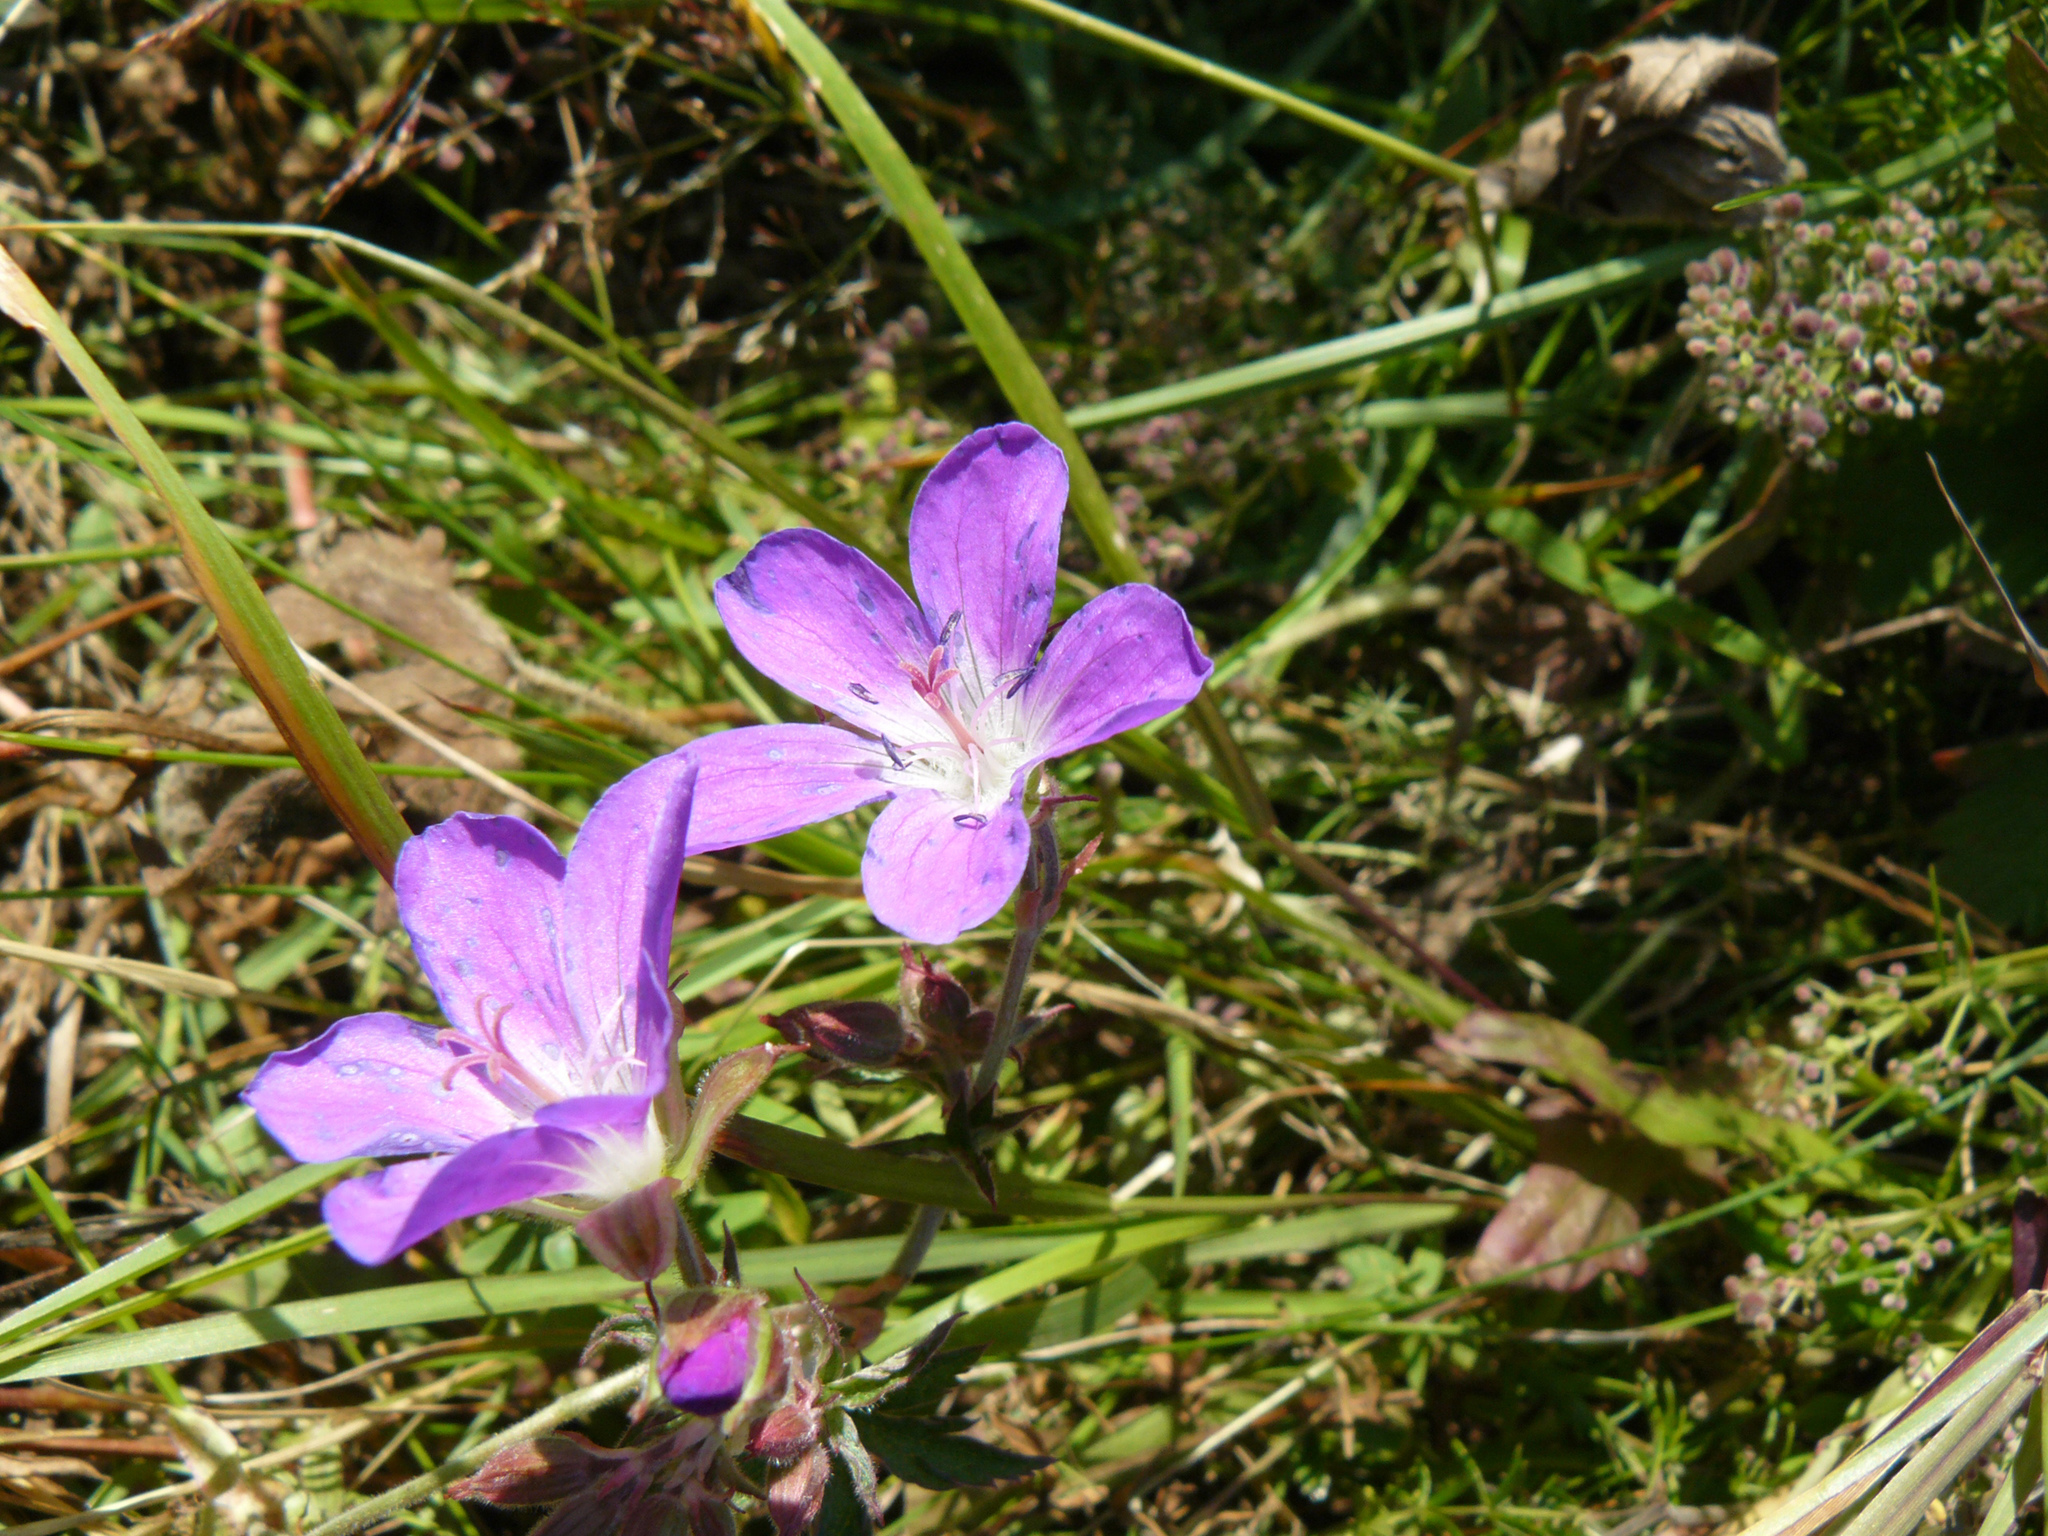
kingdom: Plantae
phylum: Tracheophyta
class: Magnoliopsida
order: Geraniales
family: Geraniaceae
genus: Geranium
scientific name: Geranium sylvaticum
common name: Wood crane's-bill
